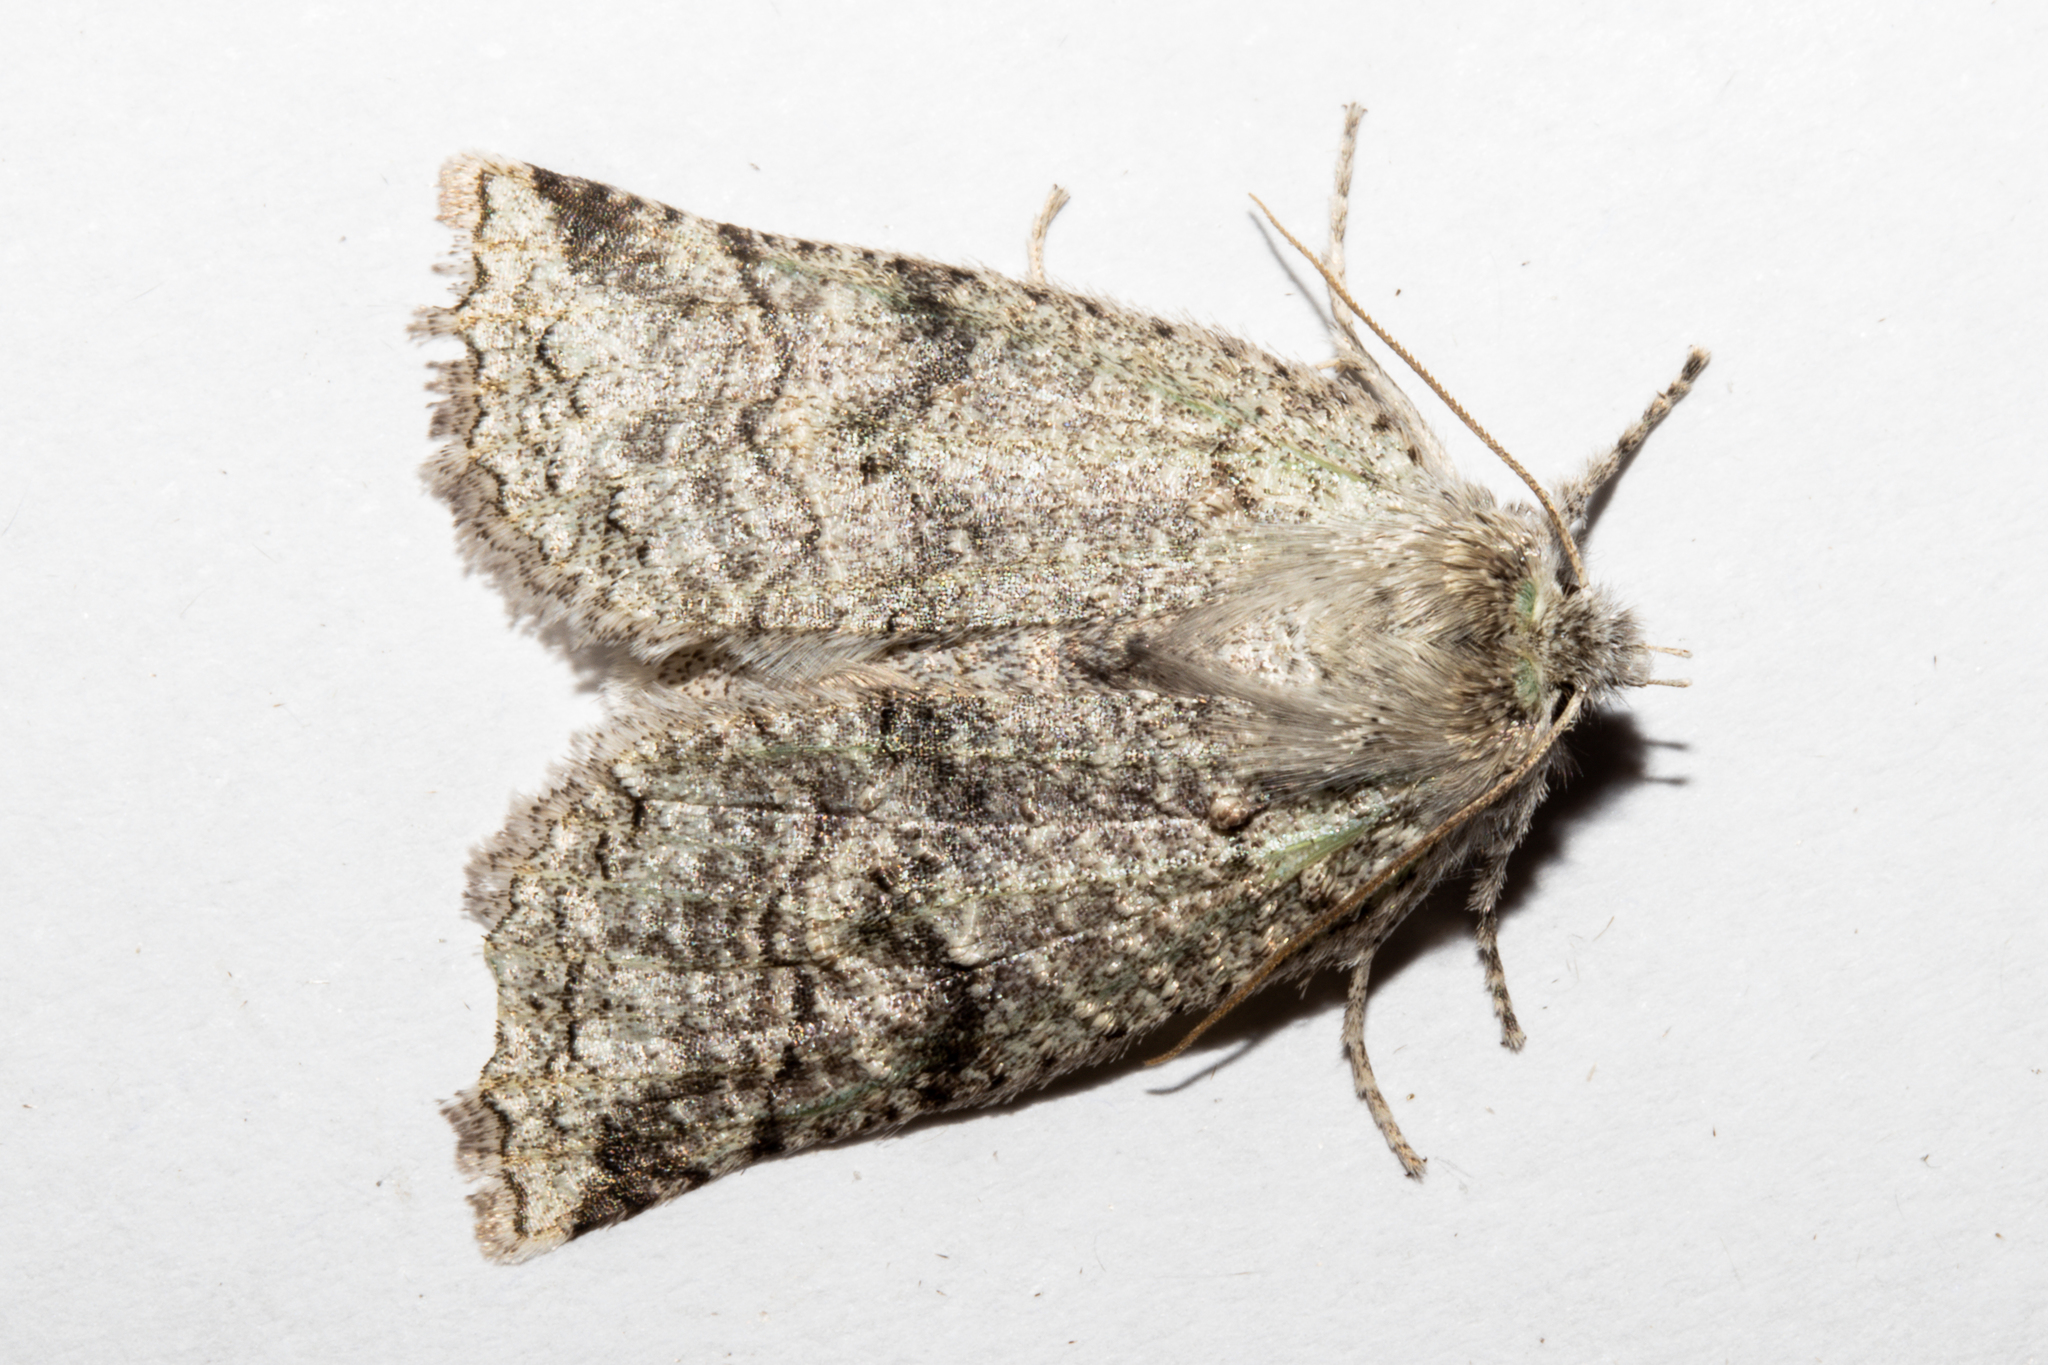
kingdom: Animalia
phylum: Arthropoda
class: Insecta
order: Lepidoptera
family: Geometridae
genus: Declana
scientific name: Declana floccosa
